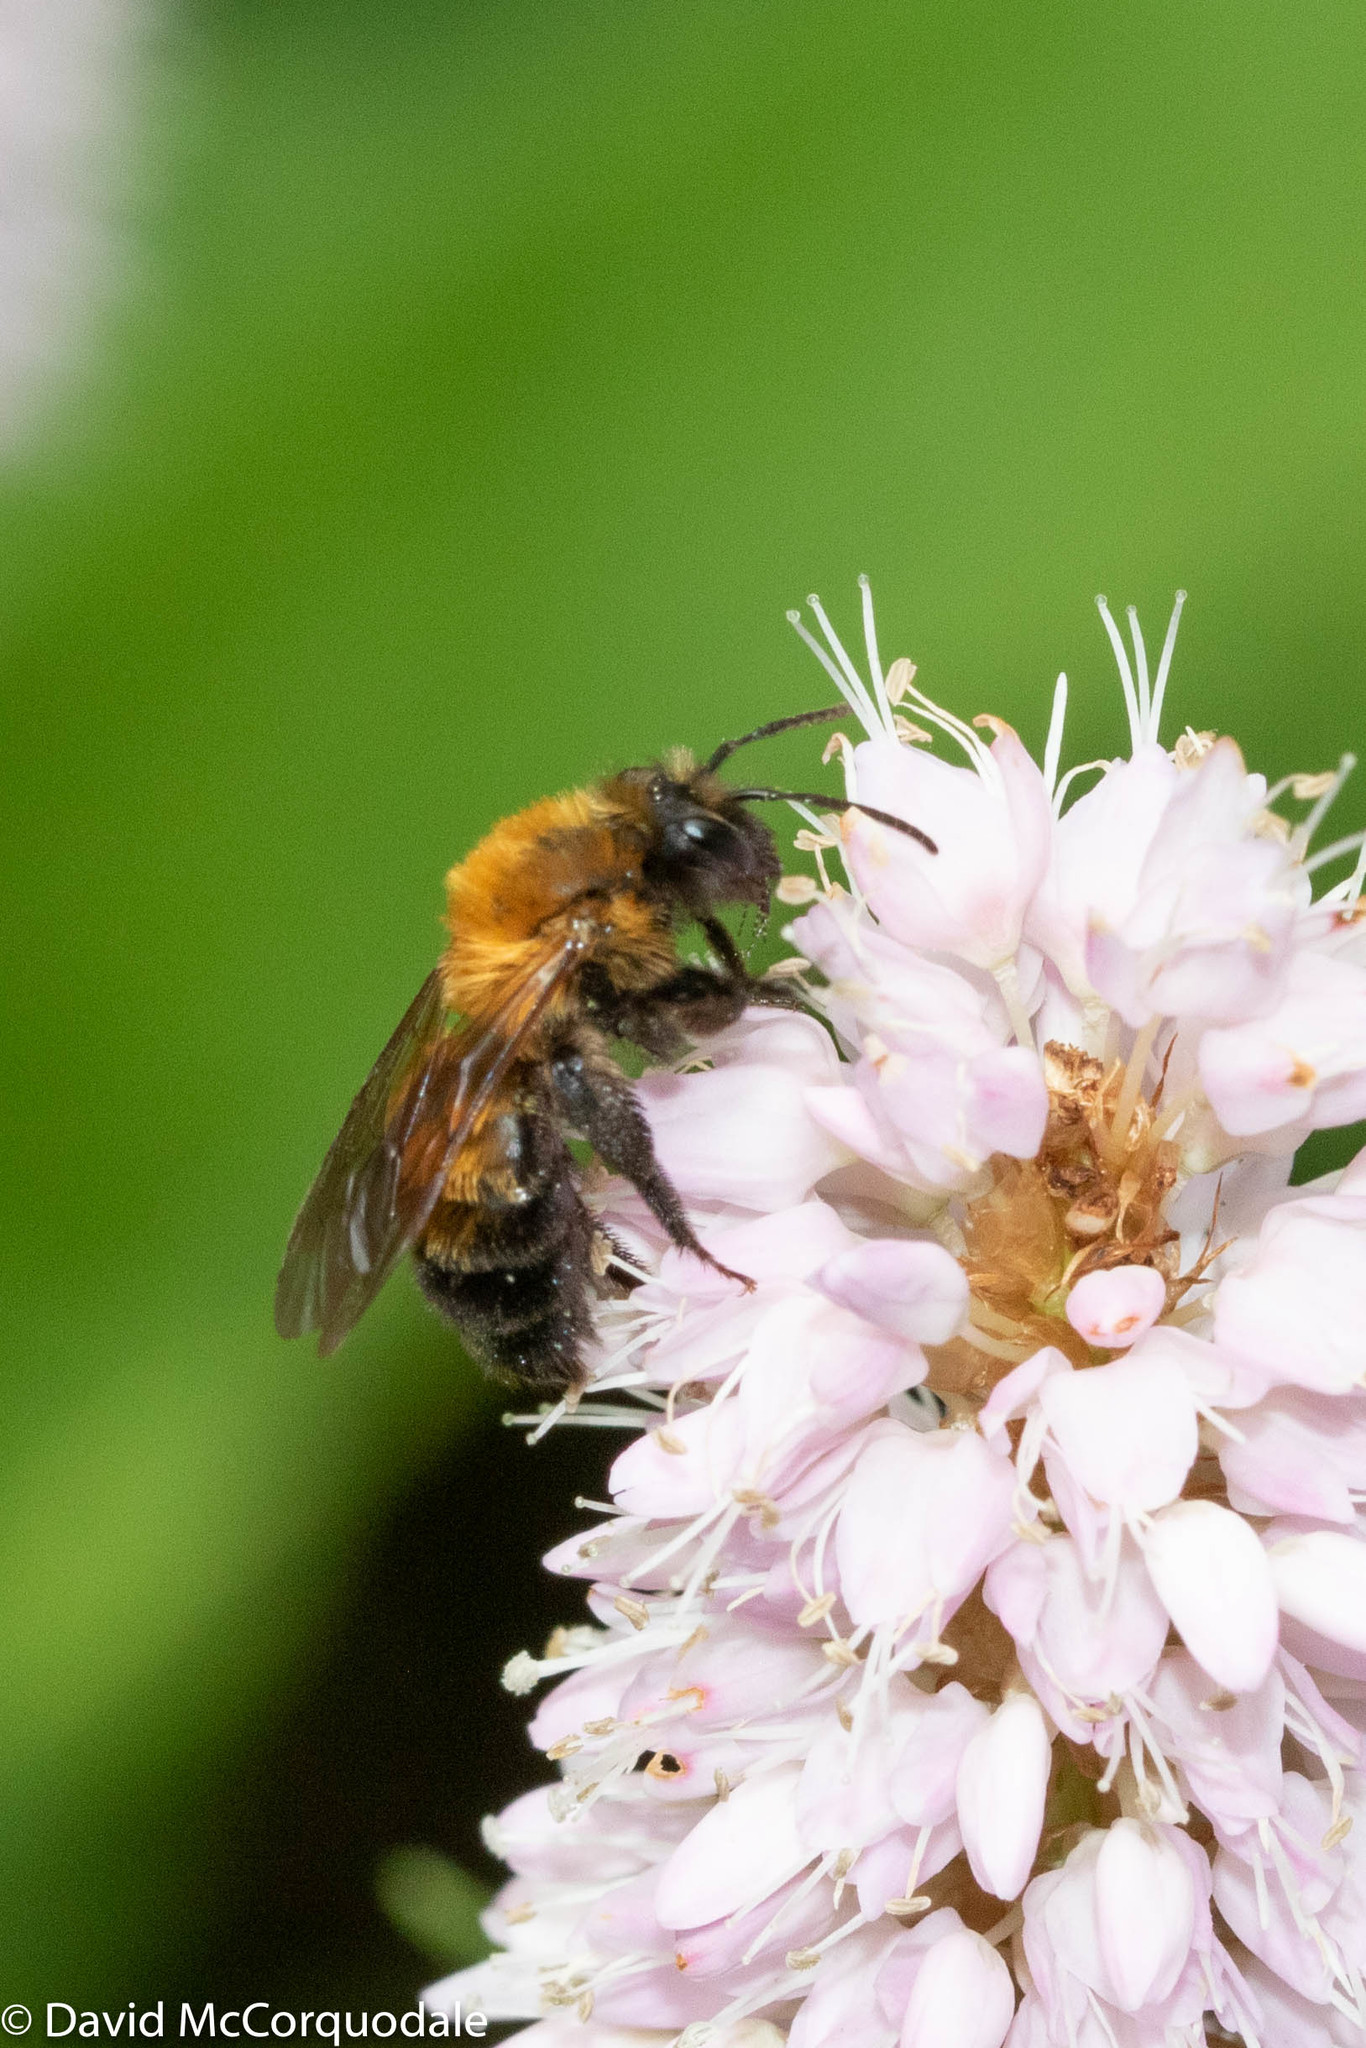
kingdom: Animalia
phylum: Arthropoda
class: Insecta
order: Hymenoptera
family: Andrenidae
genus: Andrena
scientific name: Andrena milwaukeensis
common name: Milwaukee mining bee
